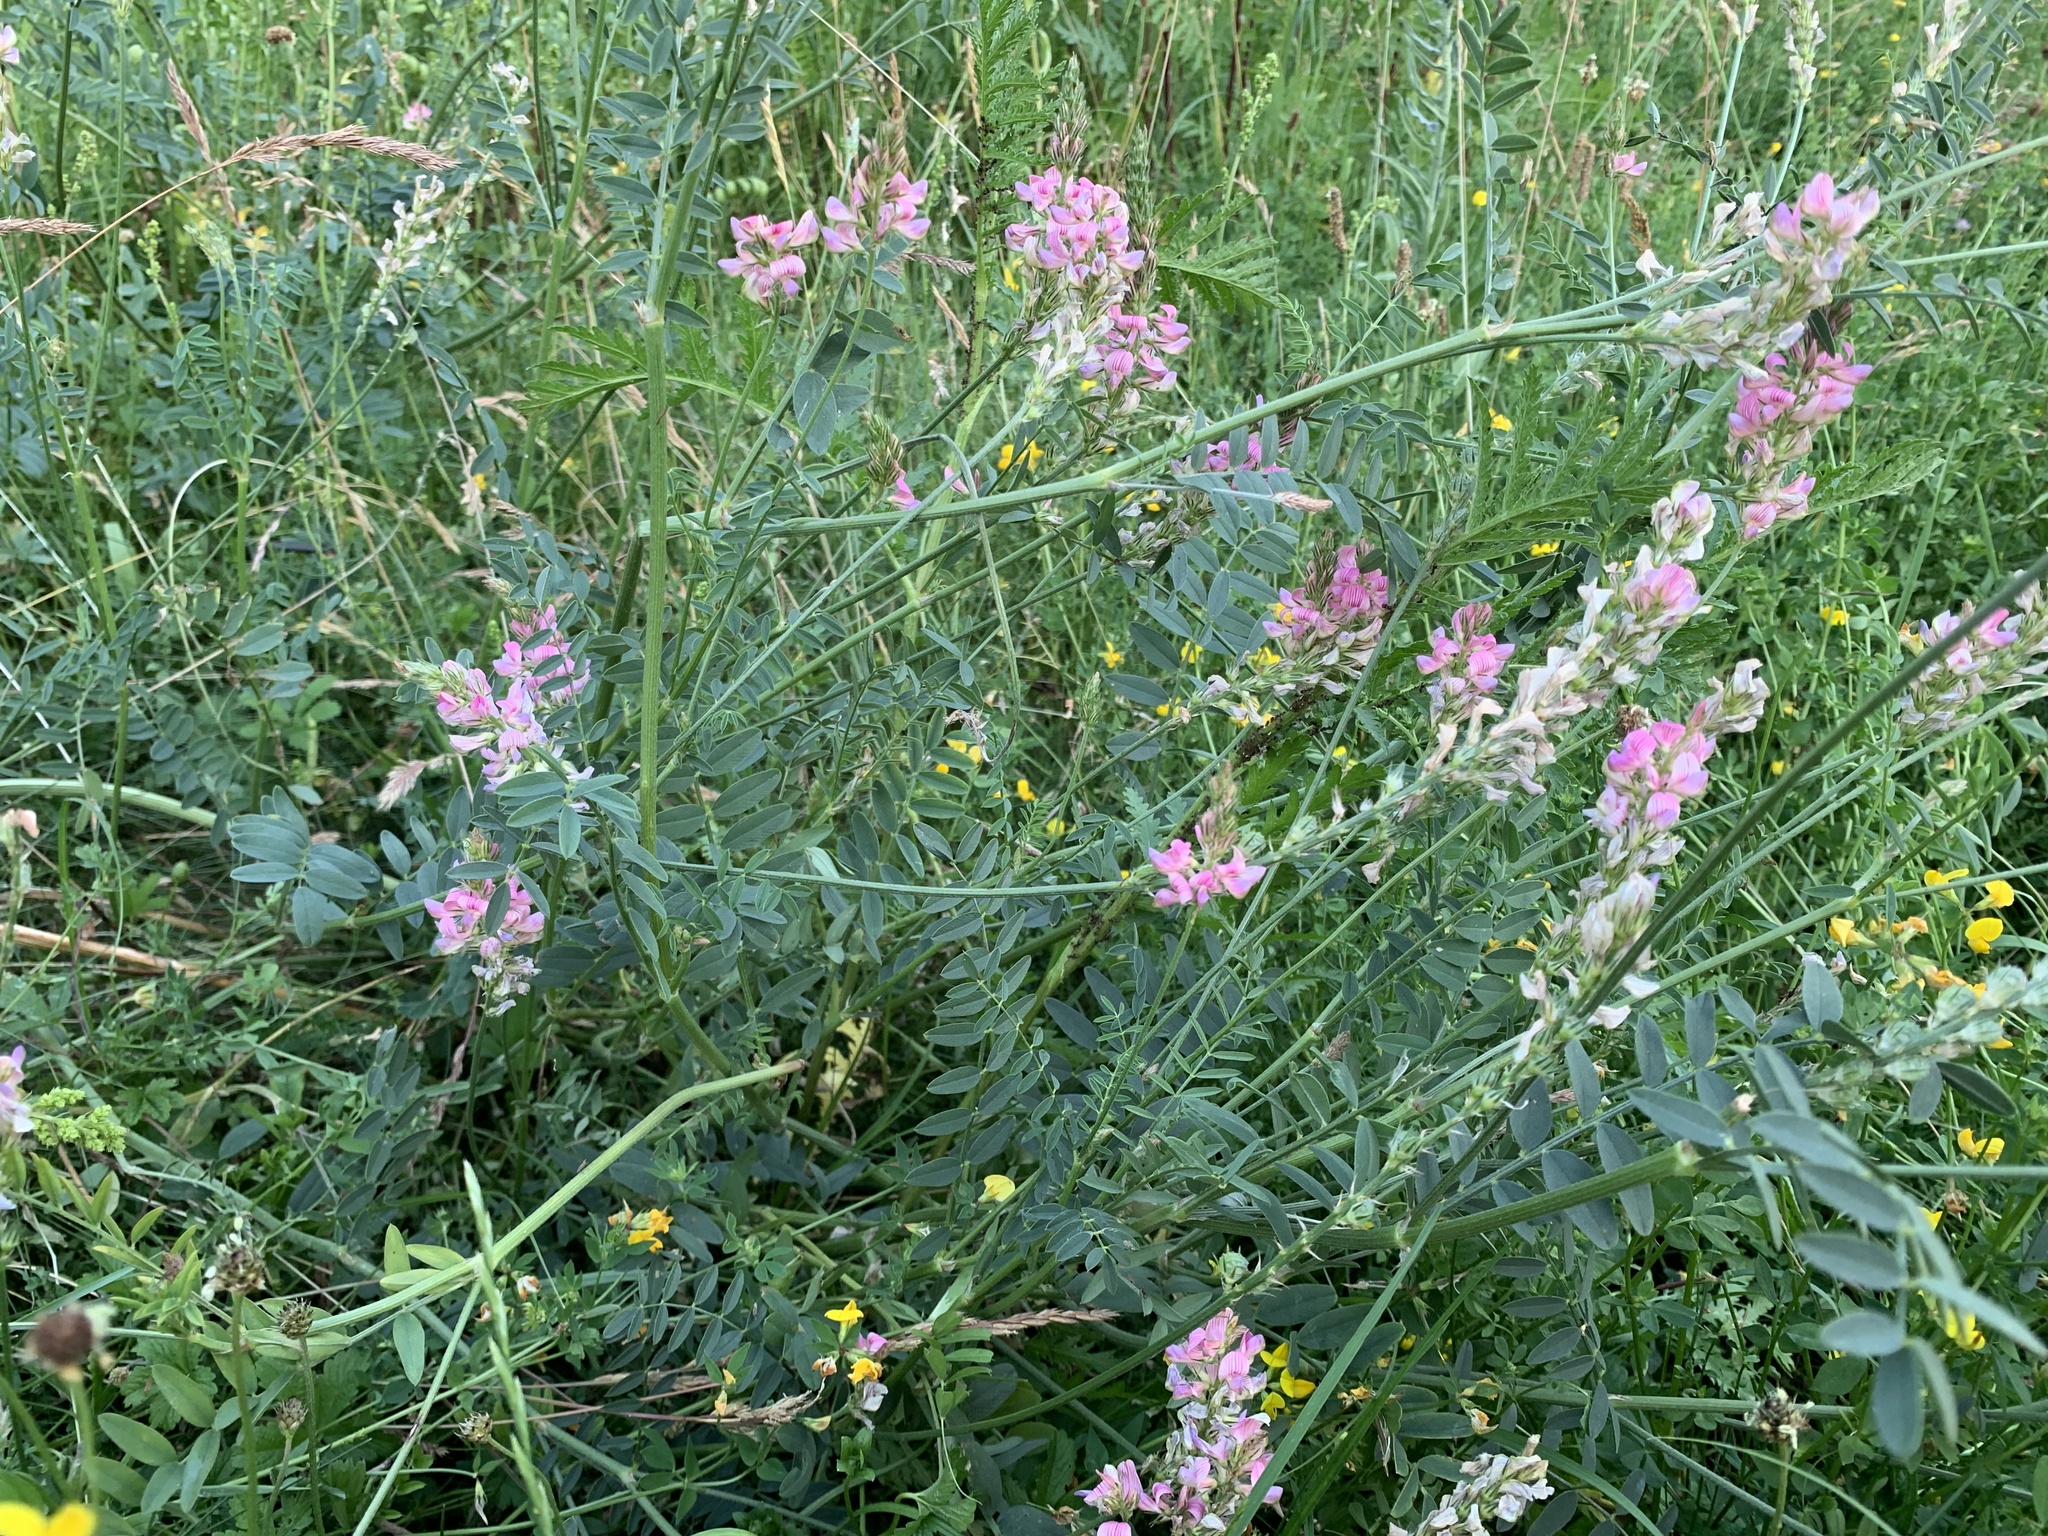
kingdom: Plantae
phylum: Tracheophyta
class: Magnoliopsida
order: Fabales
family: Fabaceae
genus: Onobrychis
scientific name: Onobrychis viciifolia
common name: Sainfoin
